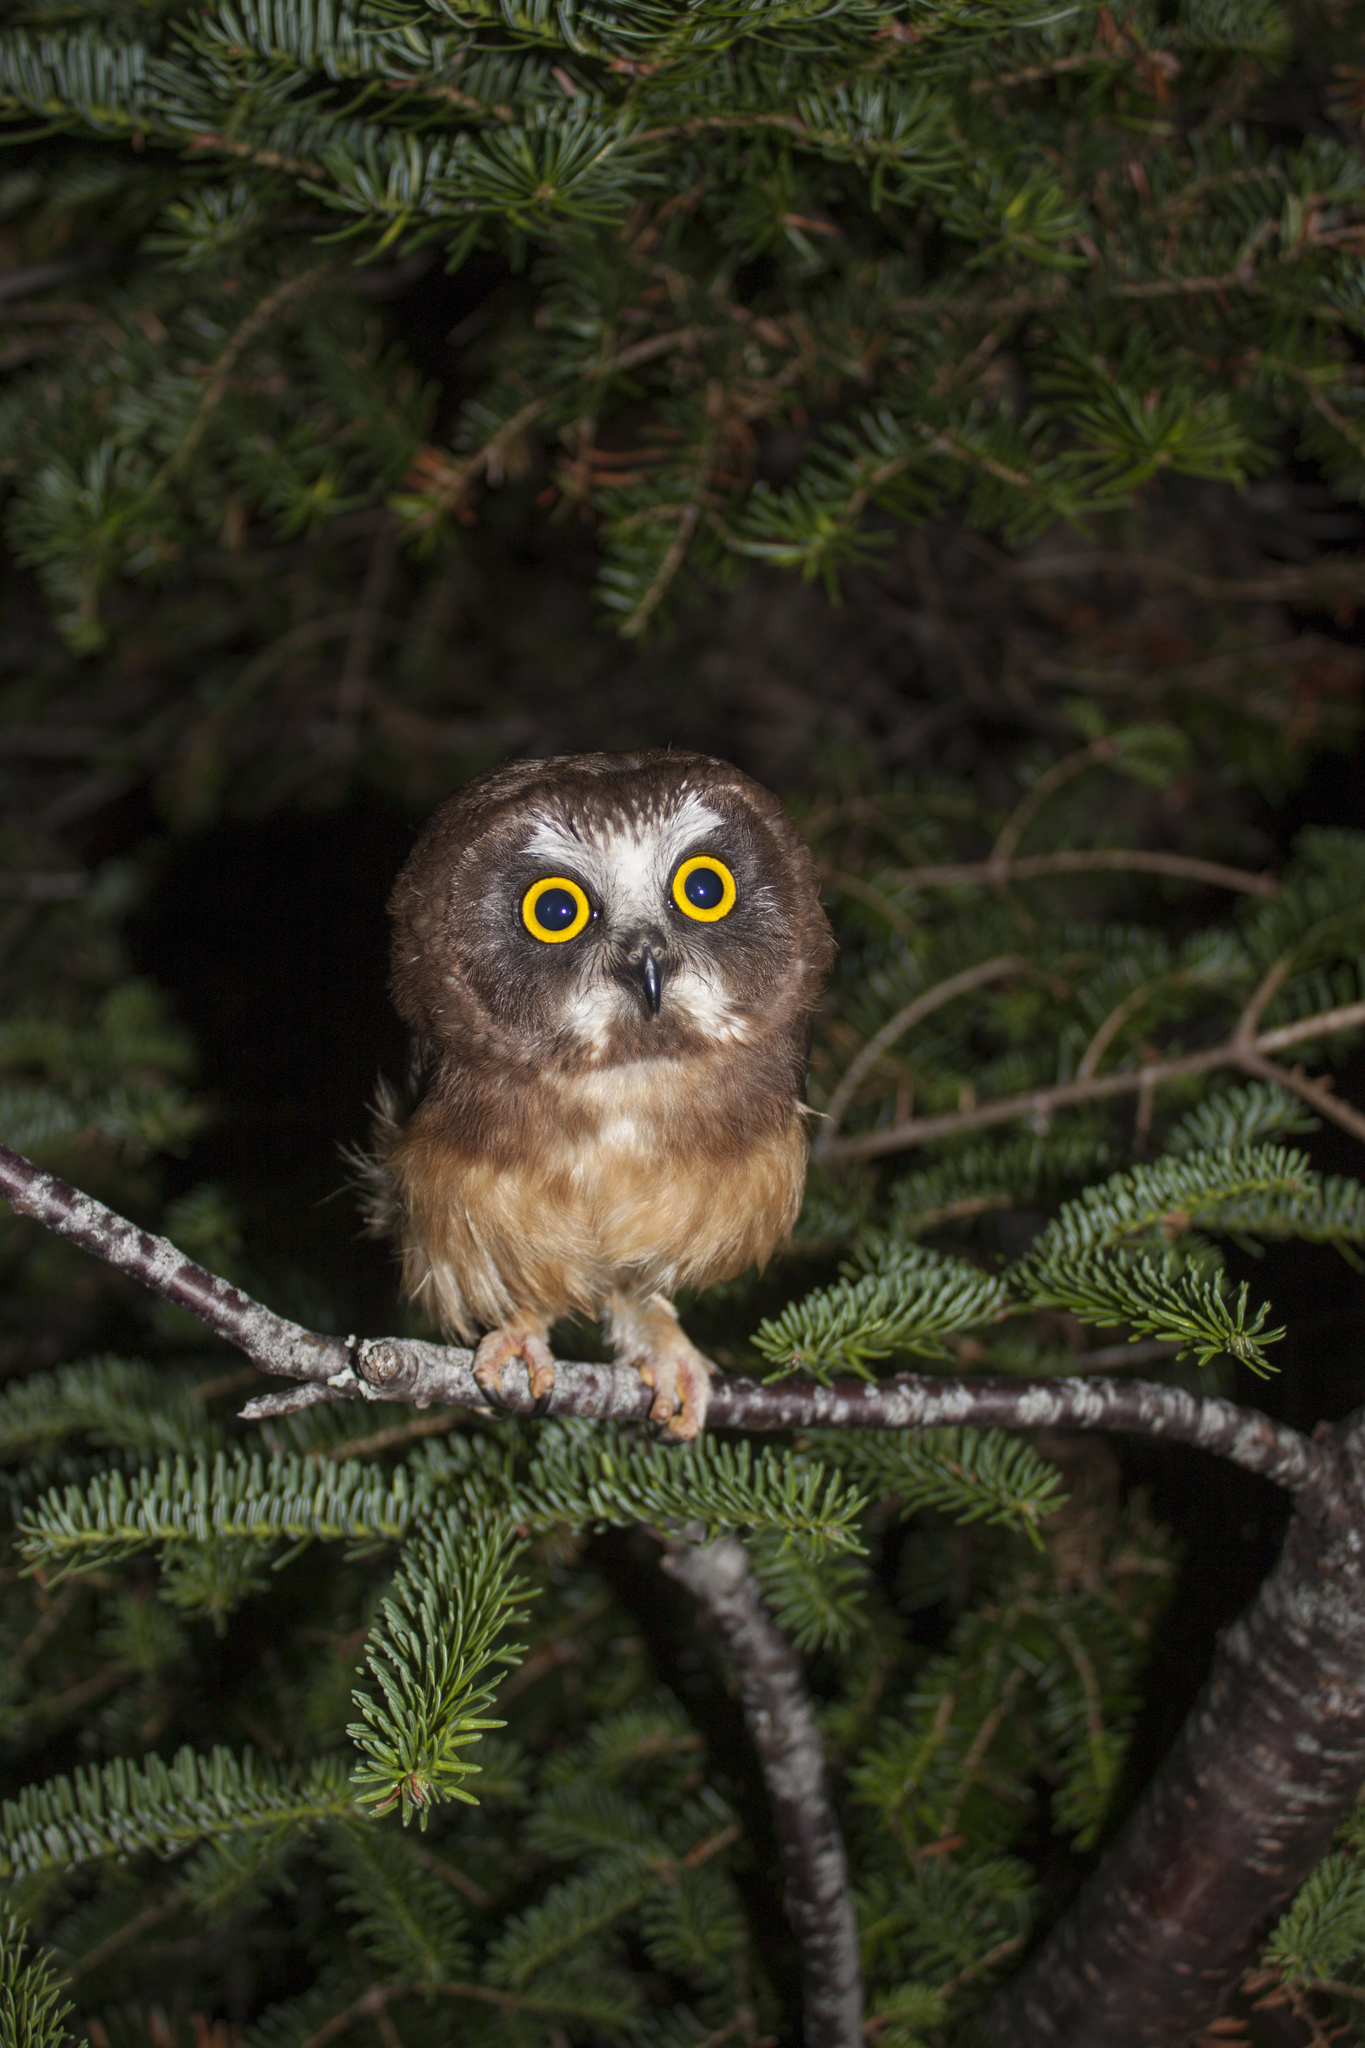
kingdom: Animalia
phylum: Chordata
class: Aves
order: Strigiformes
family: Strigidae
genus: Aegolius
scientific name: Aegolius acadicus
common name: Northern saw-whet owl
